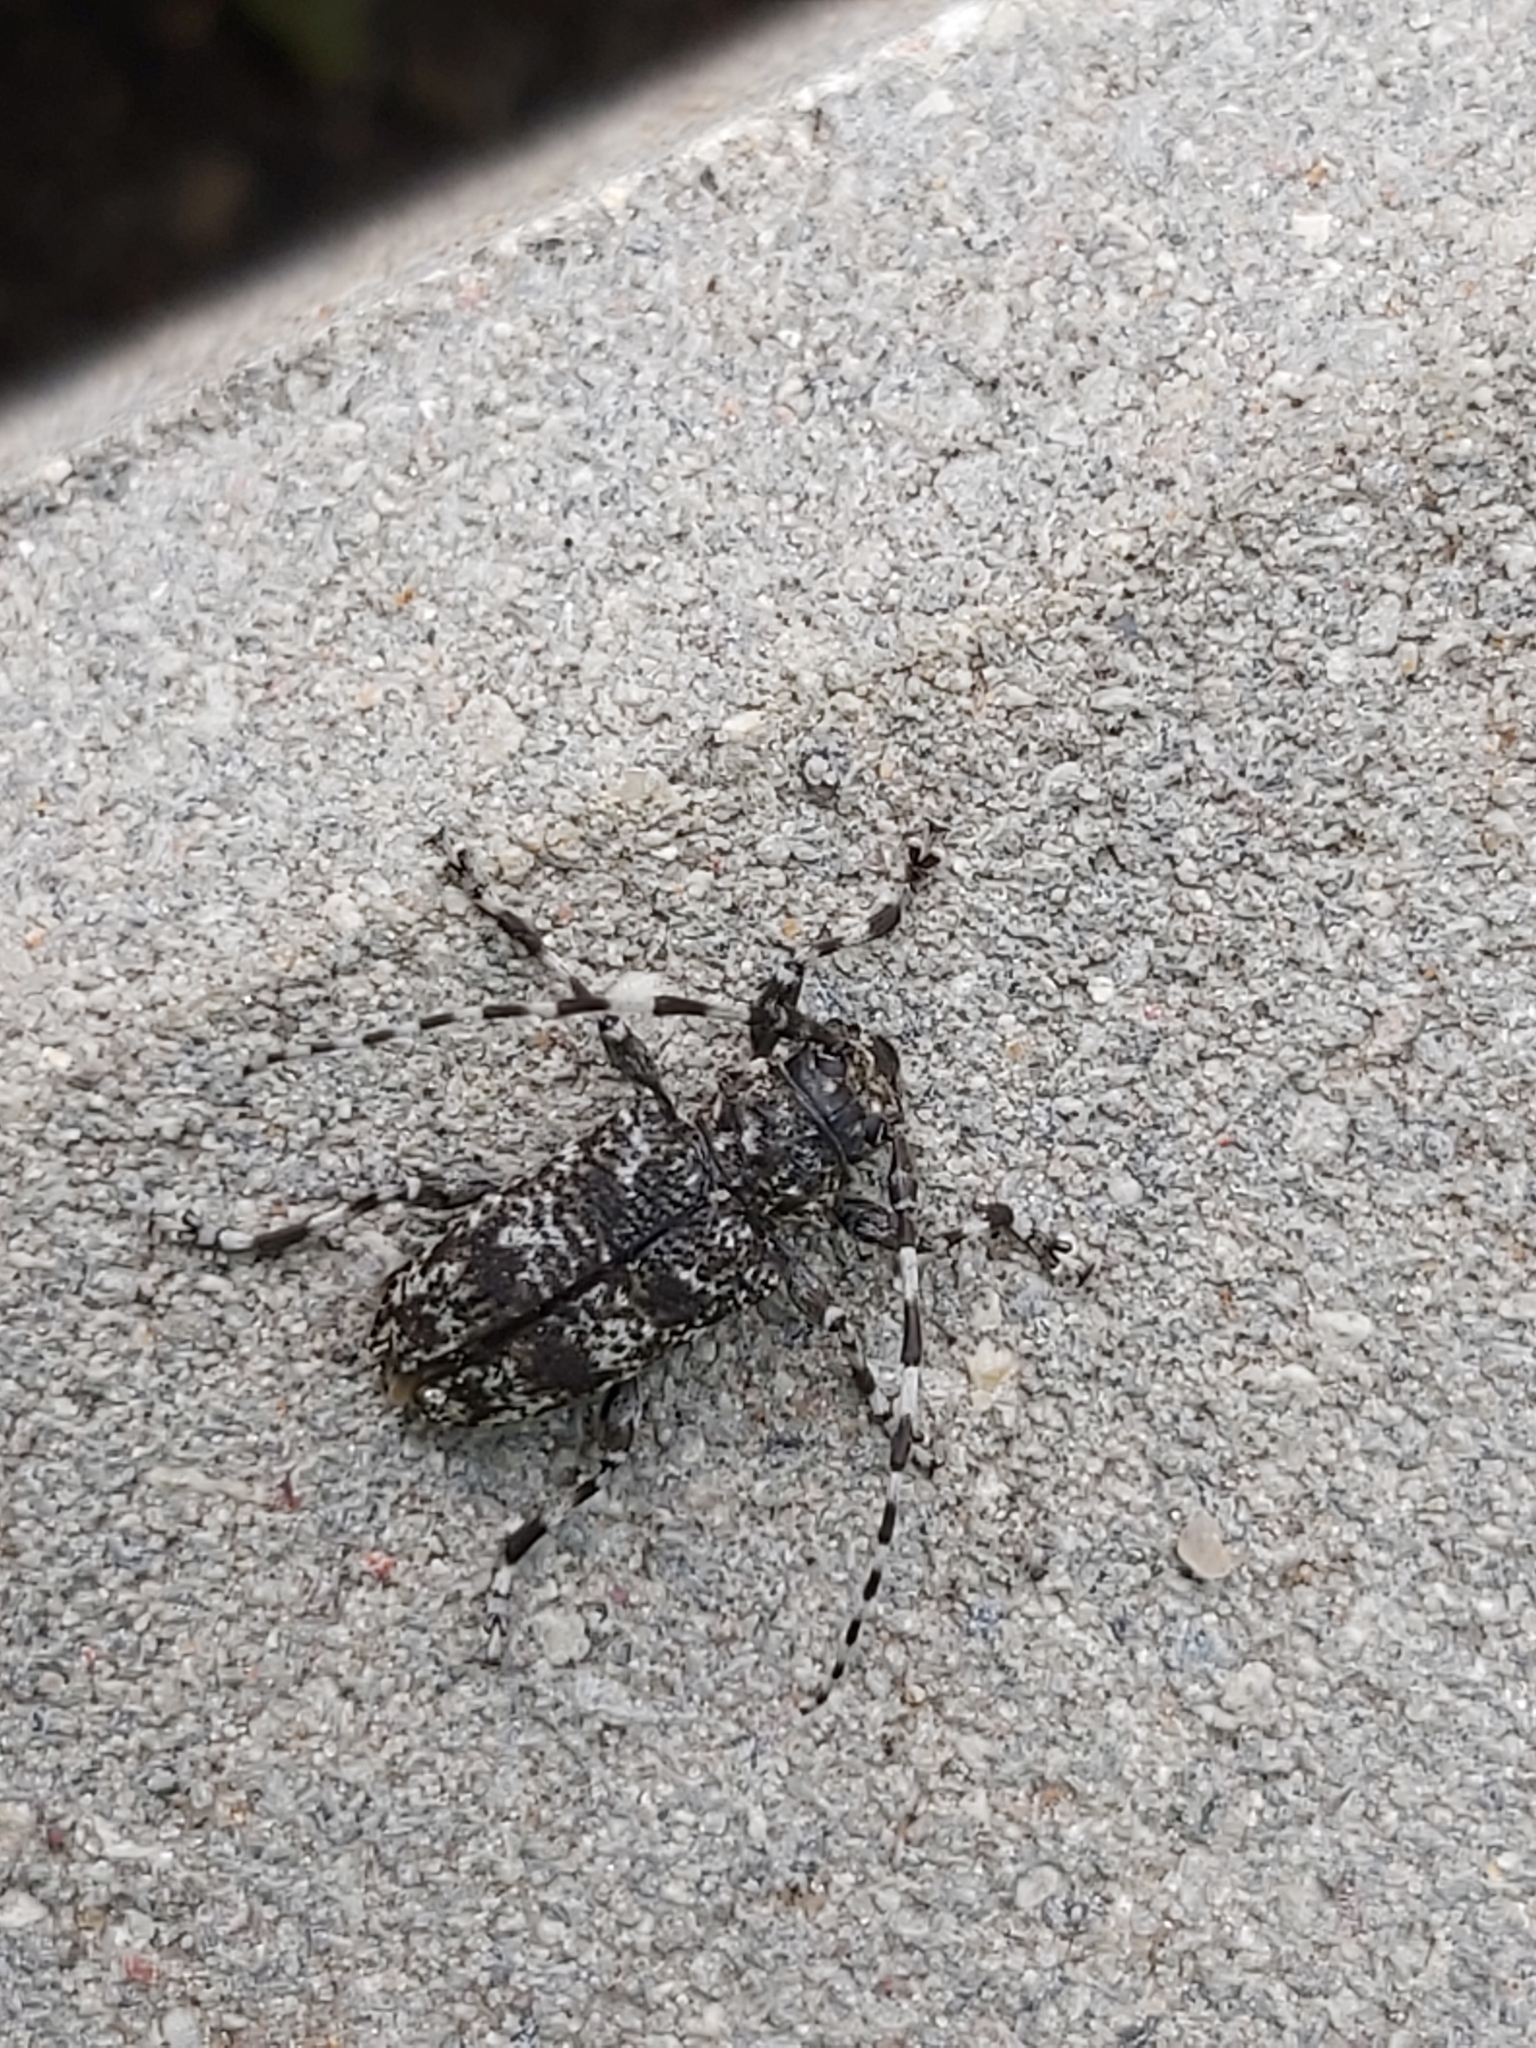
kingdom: Animalia
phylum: Arthropoda
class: Insecta
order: Coleoptera
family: Cerambycidae
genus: Aegomorphus
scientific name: Aegomorphus clavipes
